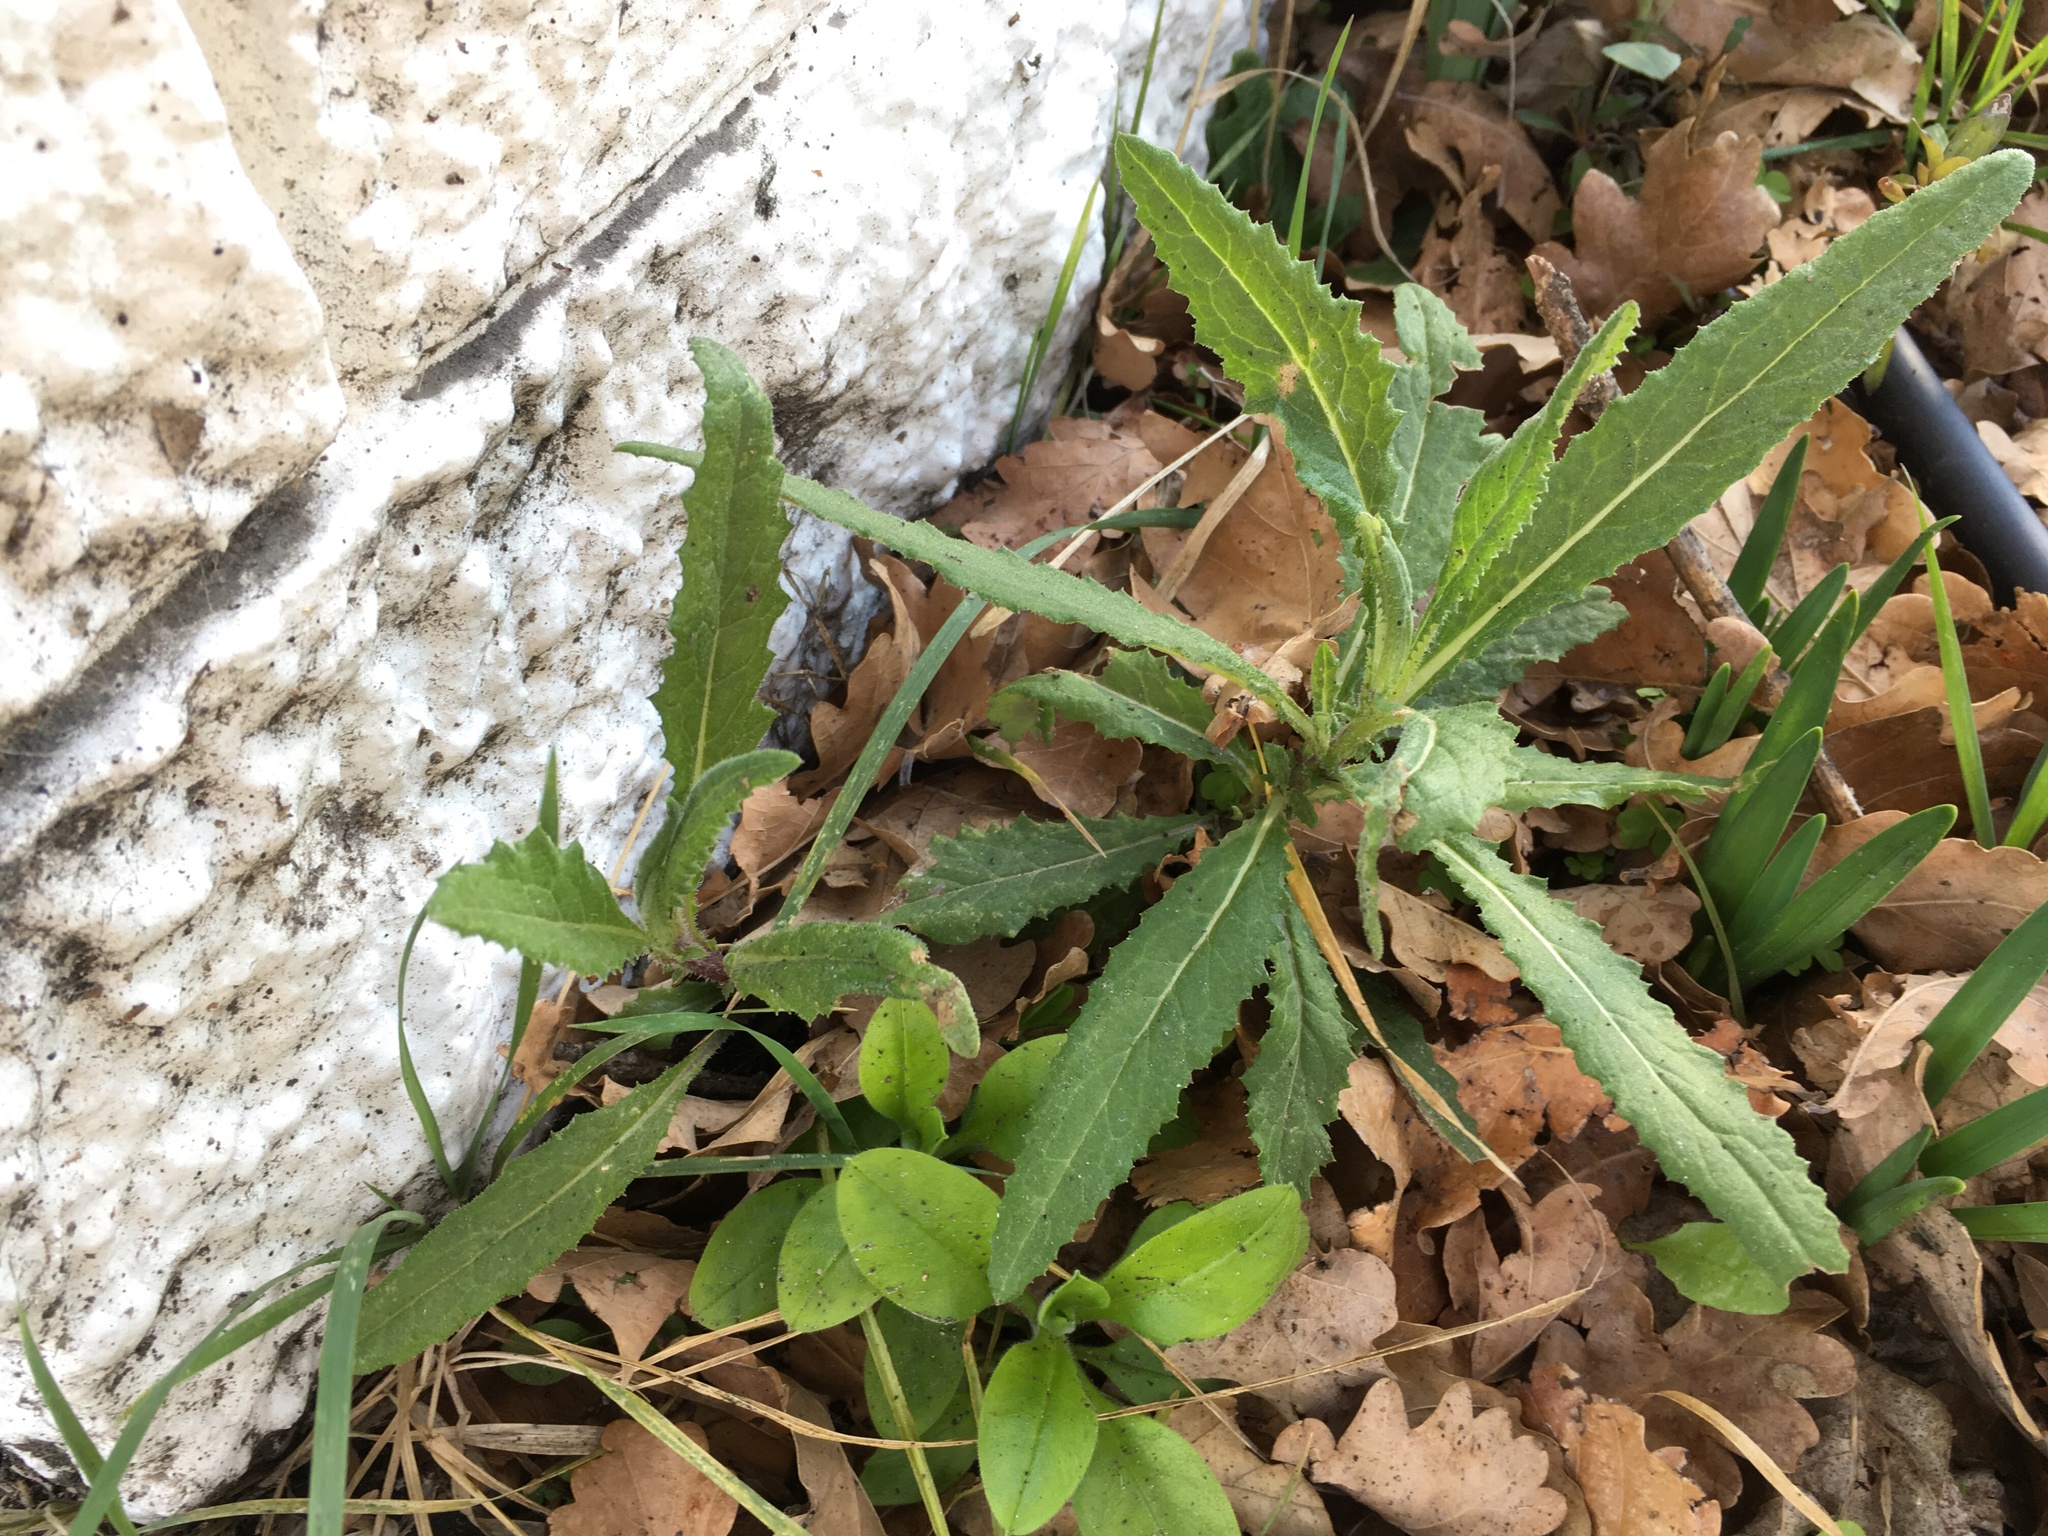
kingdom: Plantae
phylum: Tracheophyta
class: Magnoliopsida
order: Asterales
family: Asteraceae
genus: Senecio
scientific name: Senecio minimus
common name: Toothed fireweed
